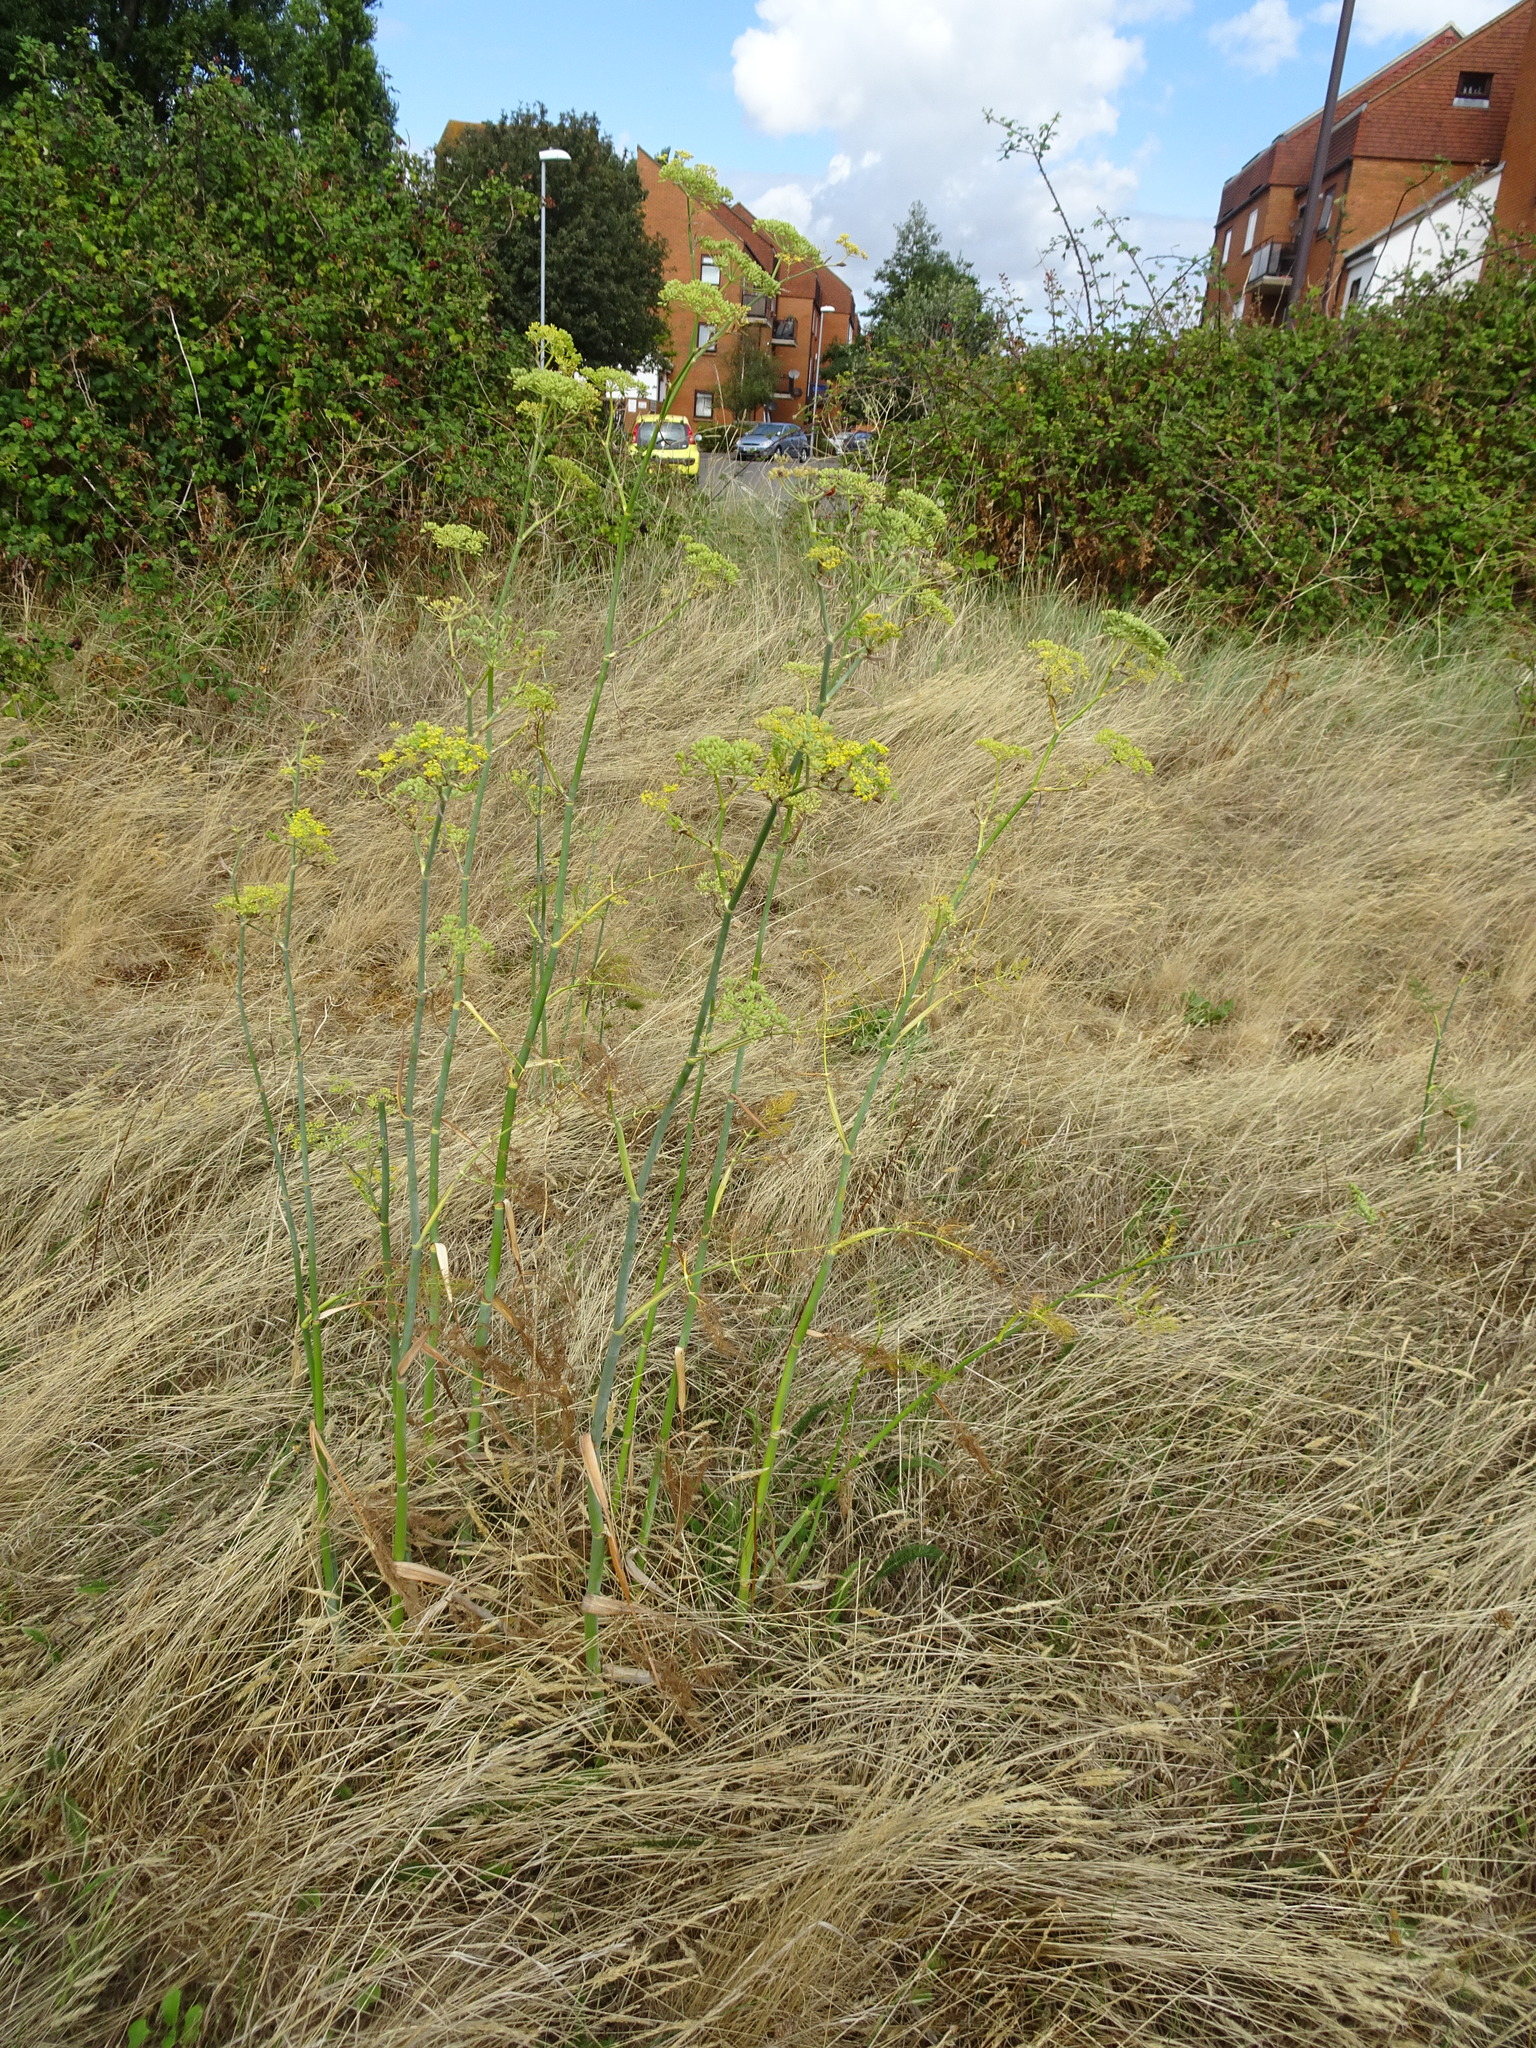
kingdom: Plantae
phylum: Tracheophyta
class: Magnoliopsida
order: Apiales
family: Apiaceae
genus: Foeniculum
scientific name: Foeniculum vulgare
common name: Fennel
